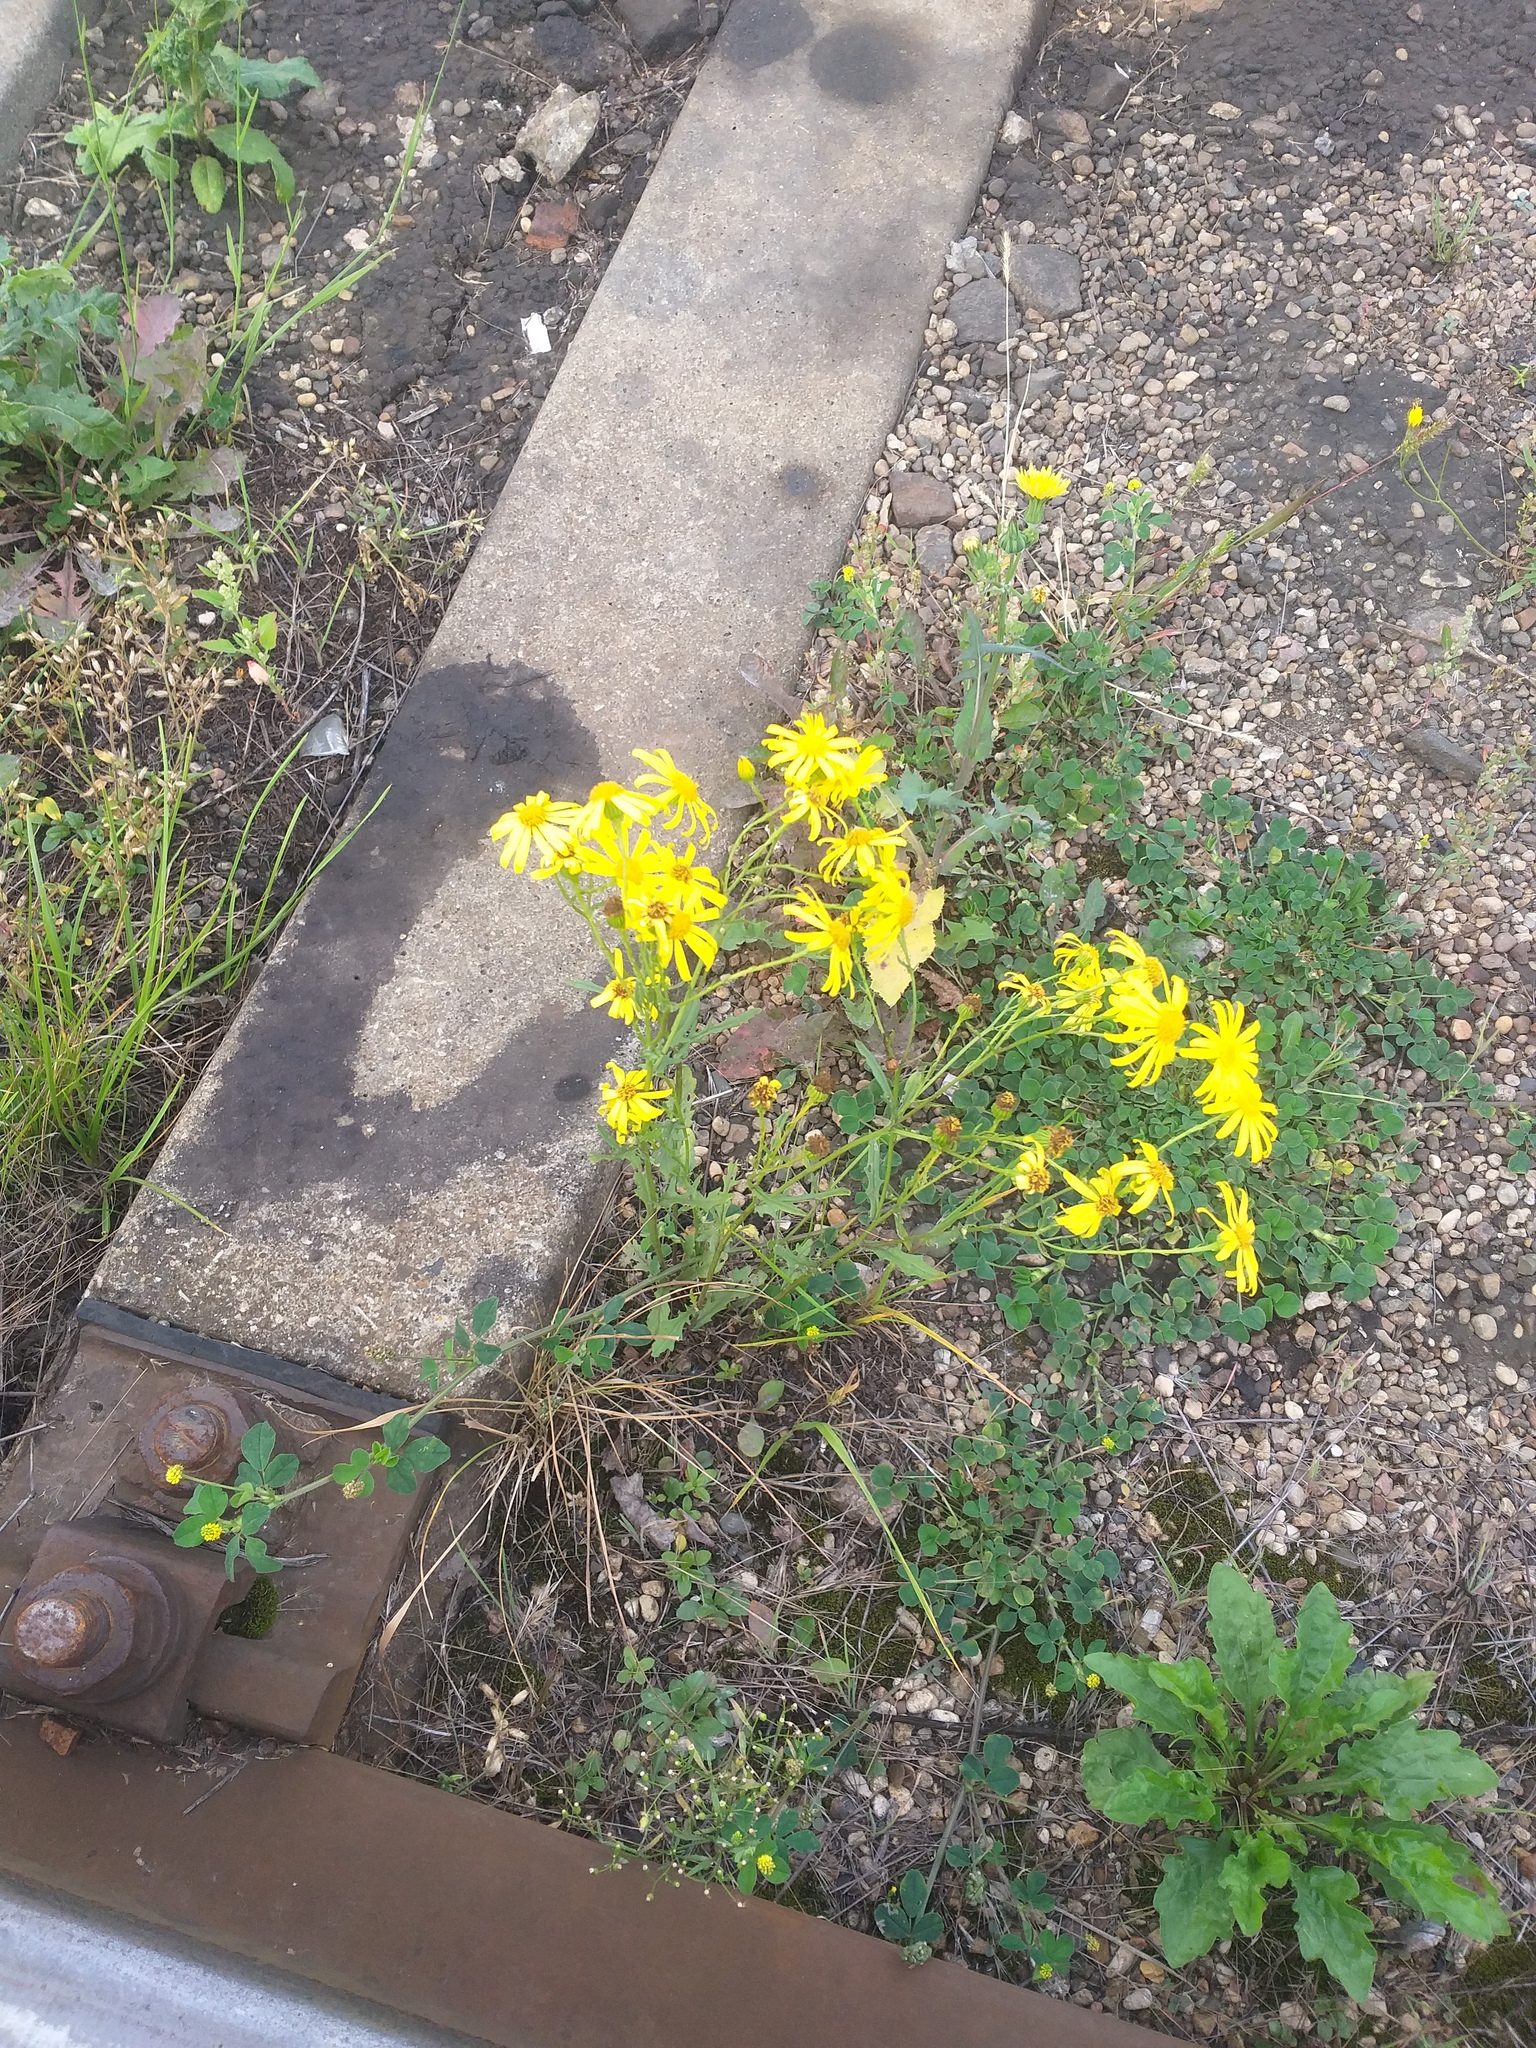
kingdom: Plantae
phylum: Tracheophyta
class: Magnoliopsida
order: Asterales
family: Asteraceae
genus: Jacobaea
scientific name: Jacobaea vulgaris
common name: Stinking willie
